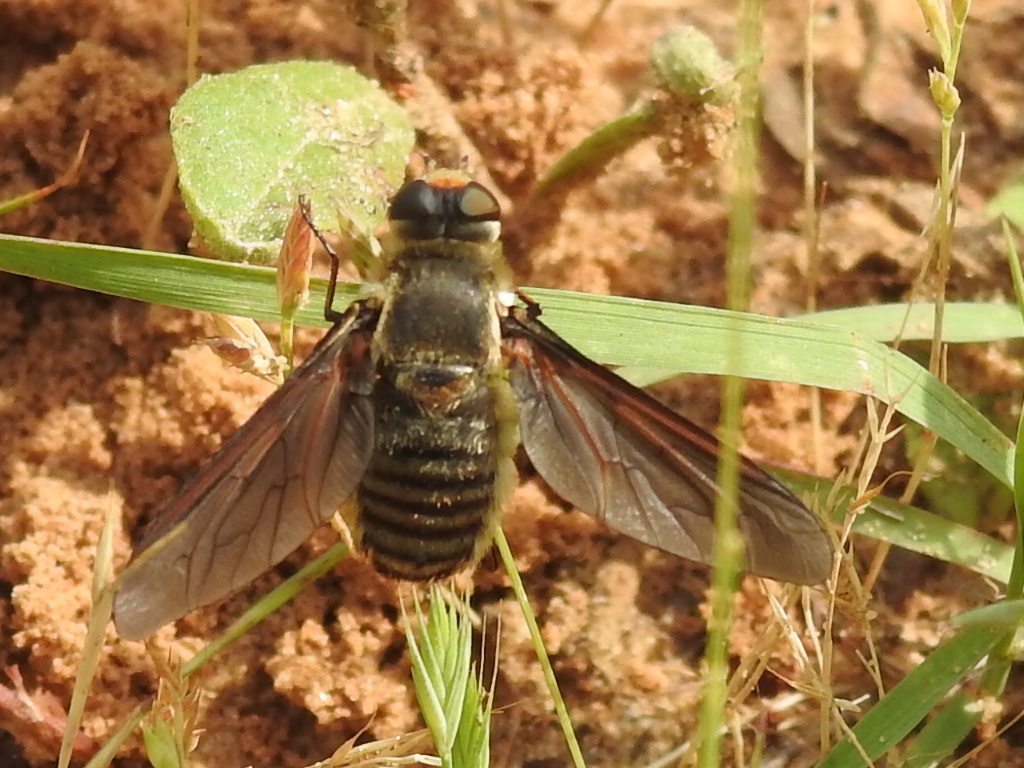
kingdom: Animalia
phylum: Arthropoda
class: Insecta
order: Diptera
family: Bombyliidae
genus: Poecilanthrax
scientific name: Poecilanthrax lucifer
